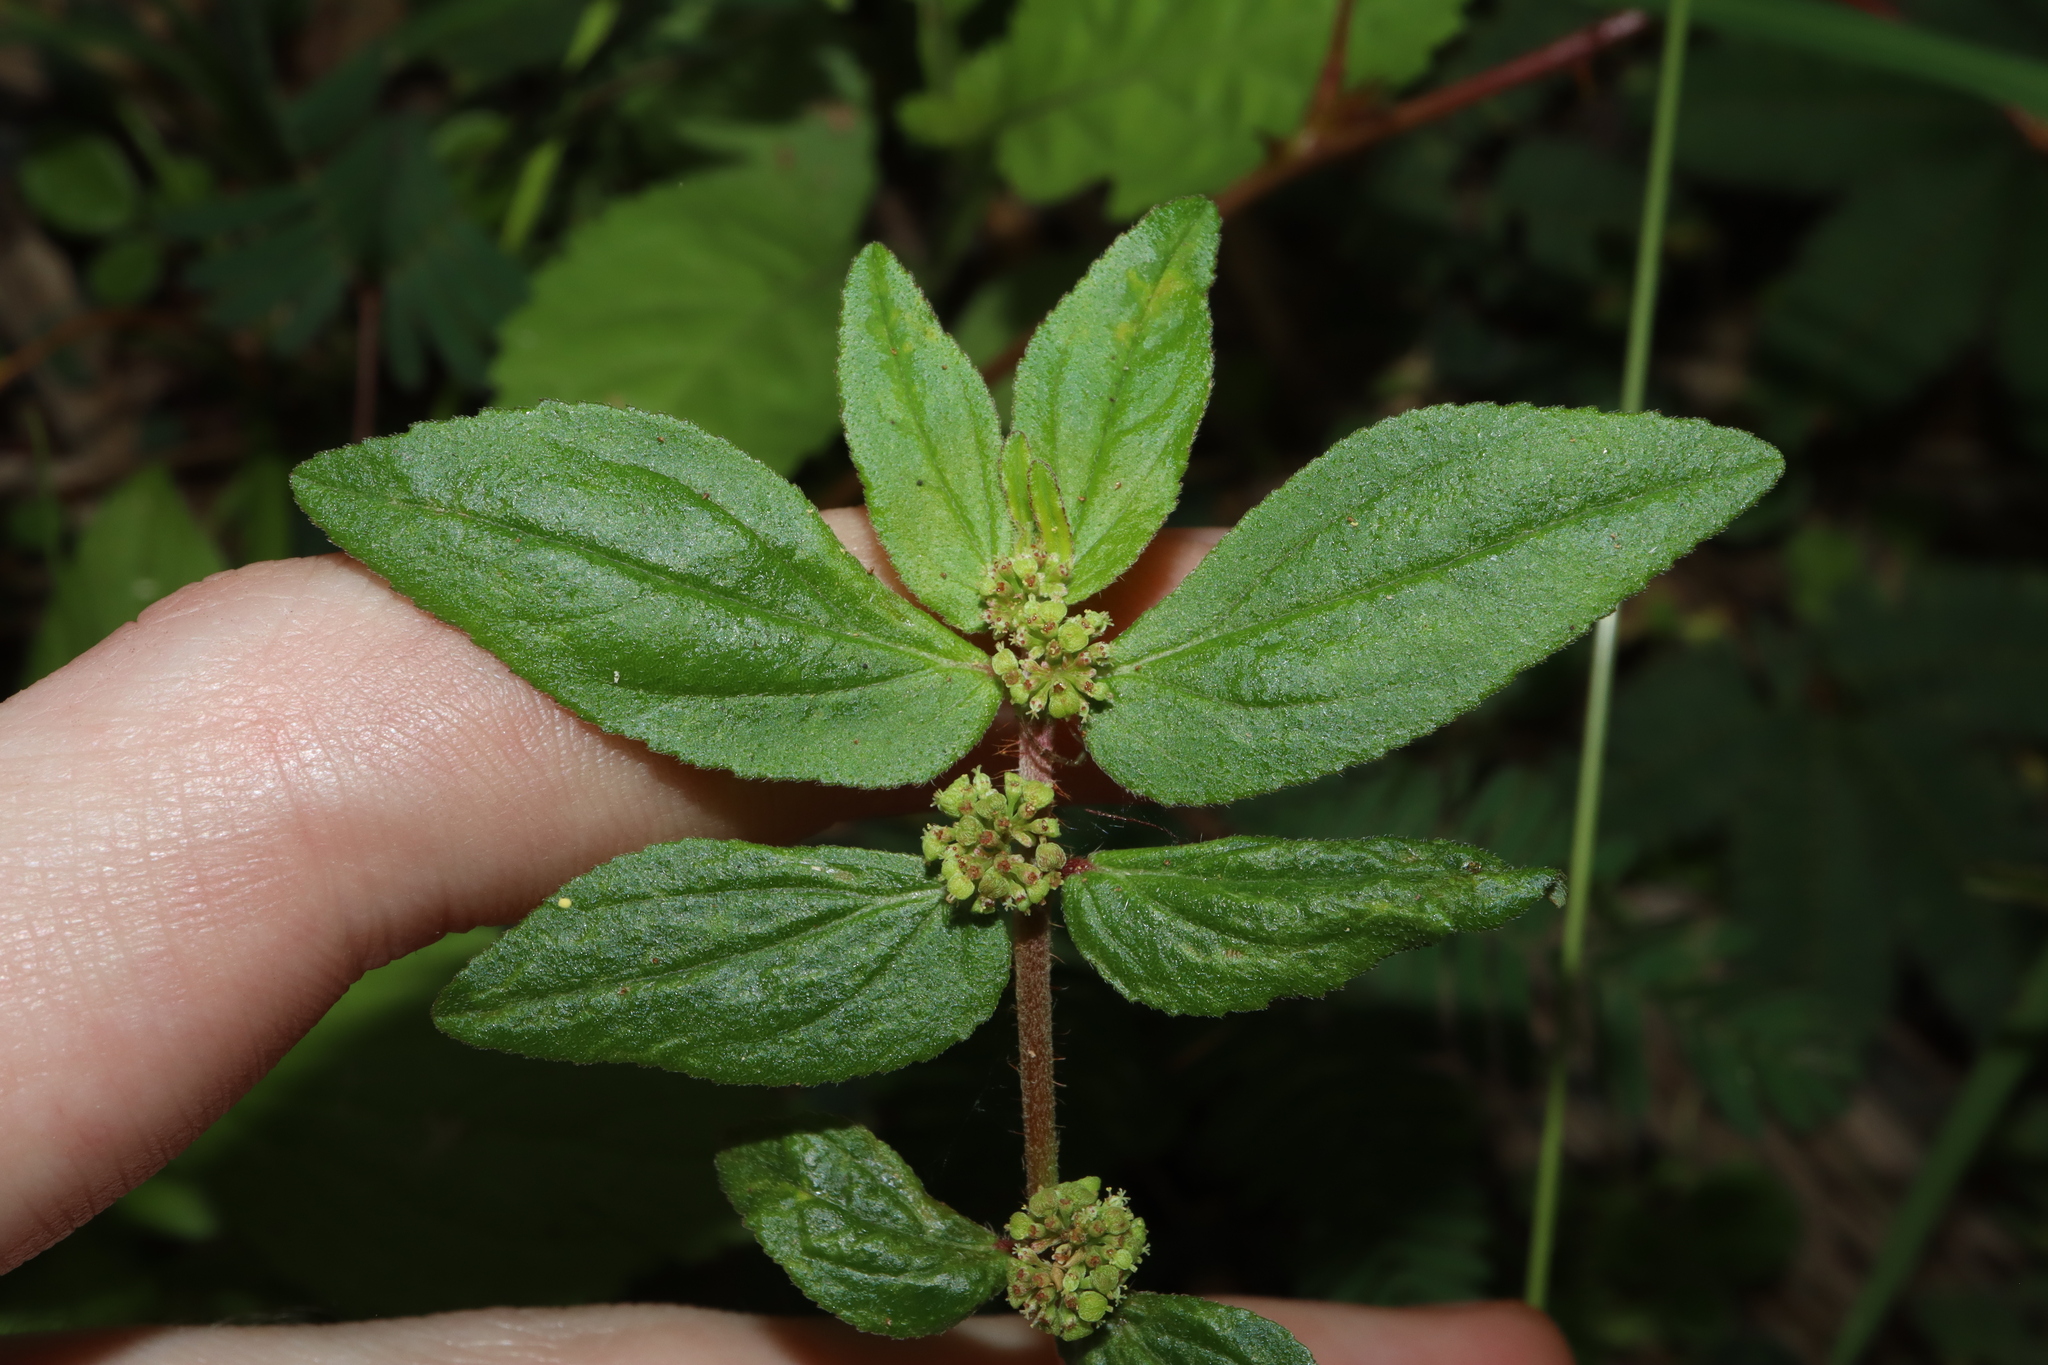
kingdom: Plantae
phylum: Tracheophyta
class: Magnoliopsida
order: Malpighiales
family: Euphorbiaceae
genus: Euphorbia
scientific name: Euphorbia hirta
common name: Pillpod sandmat
